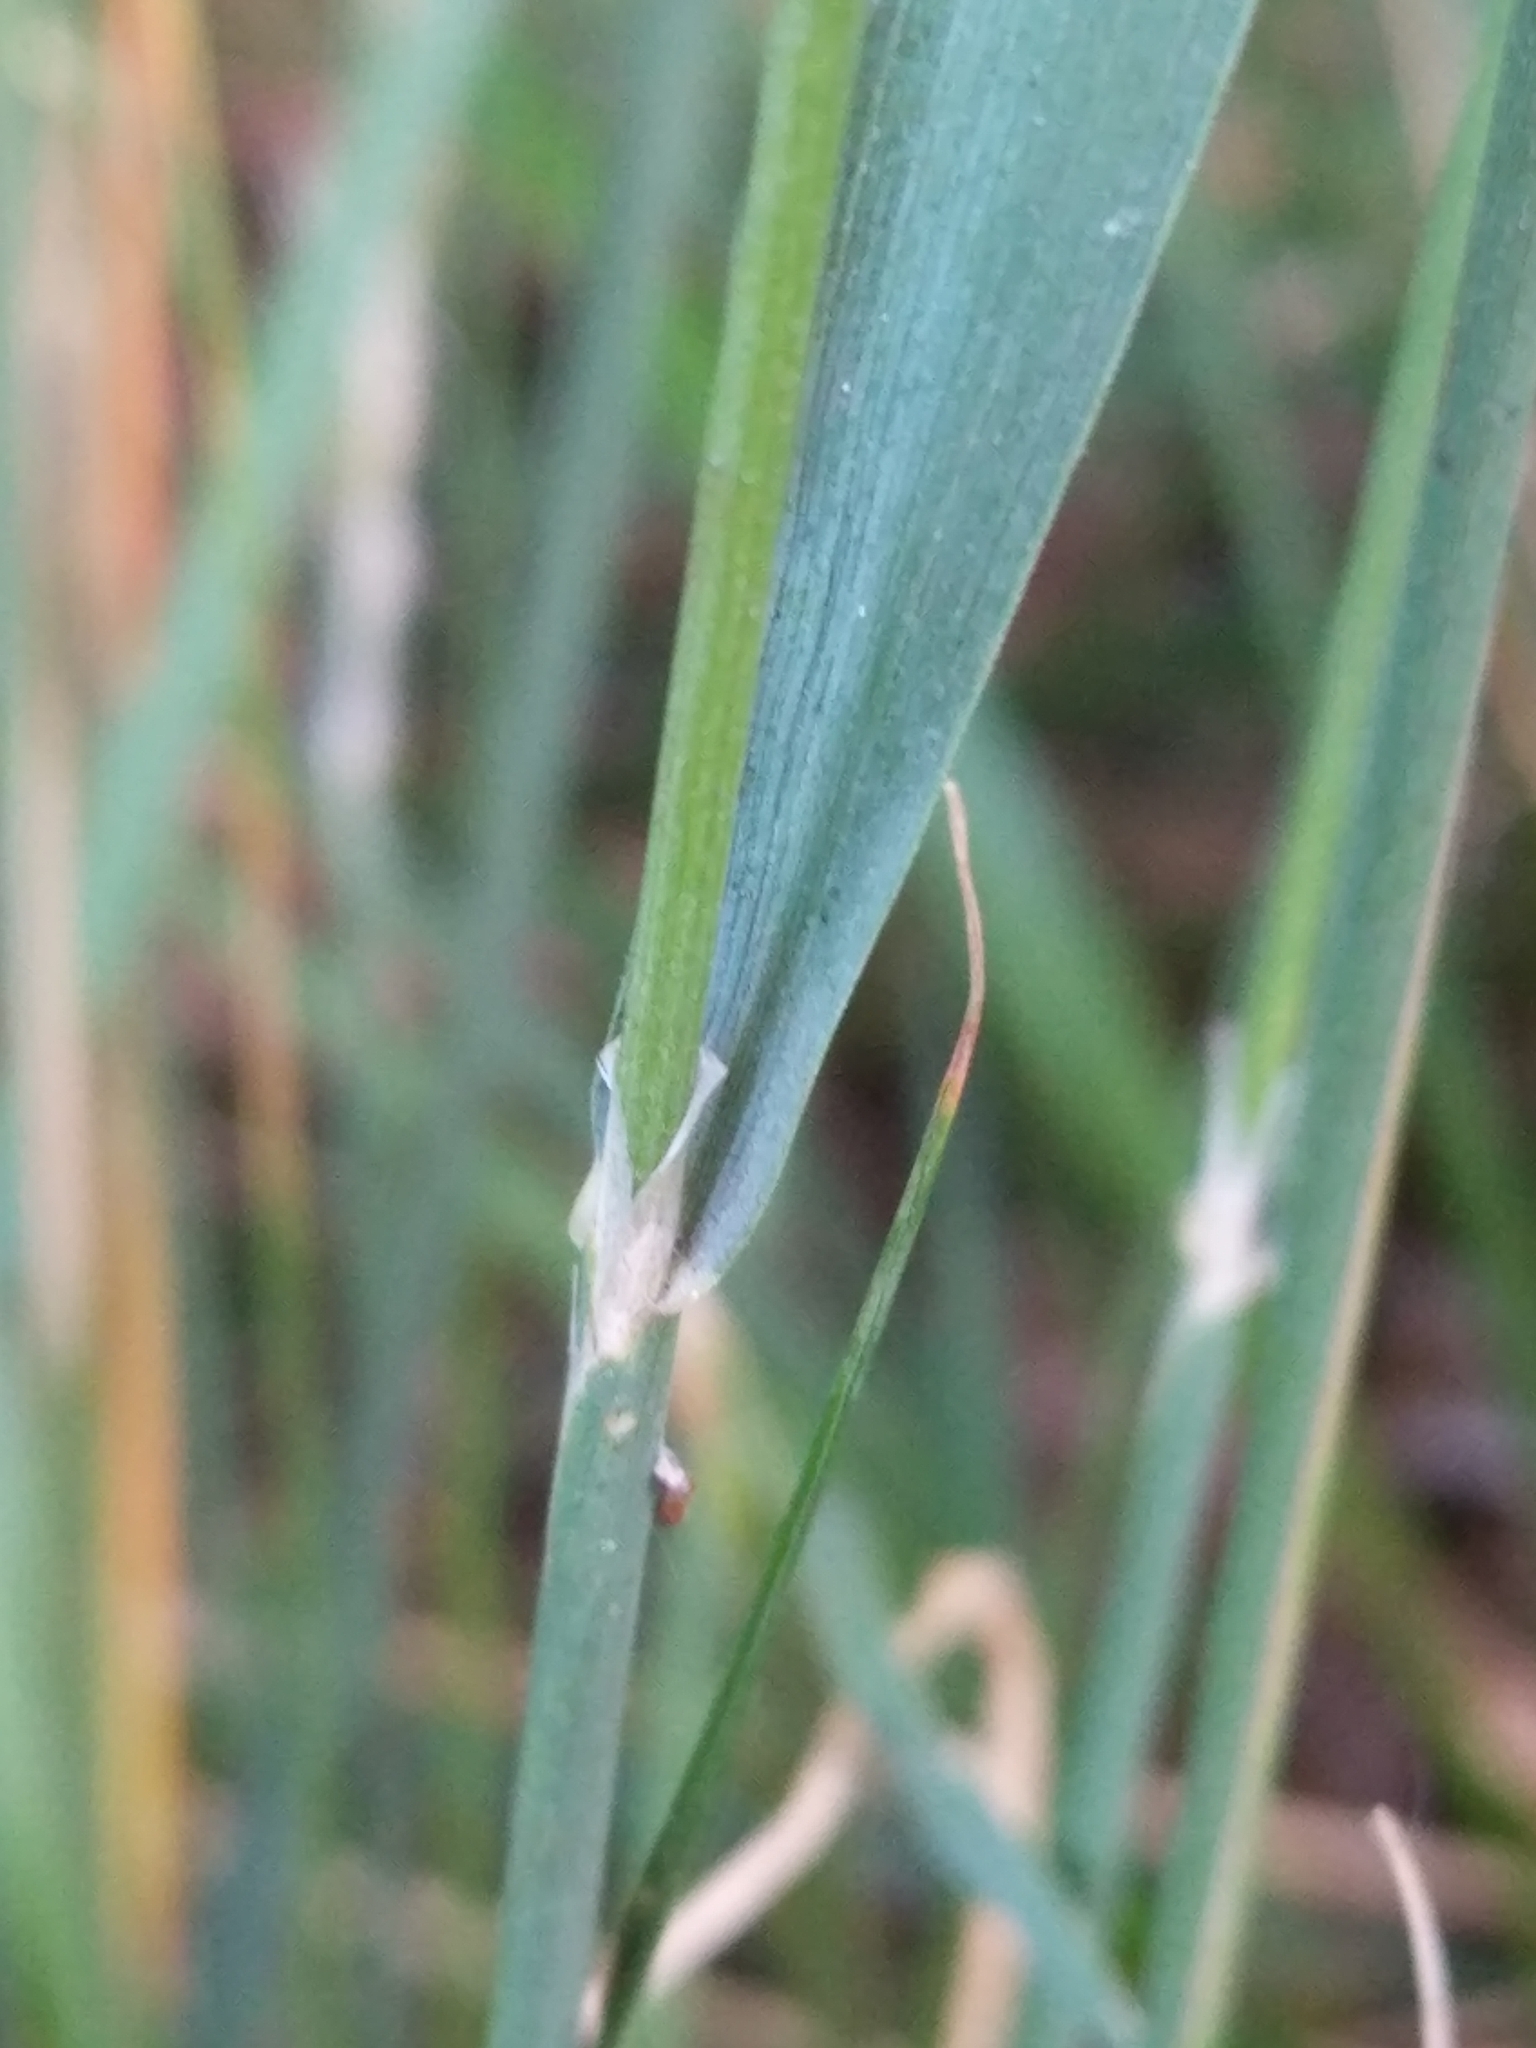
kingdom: Plantae
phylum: Tracheophyta
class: Liliopsida
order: Poales
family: Poaceae
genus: Calamagrostis
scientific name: Calamagrostis epigejos
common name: Wood small-reed
